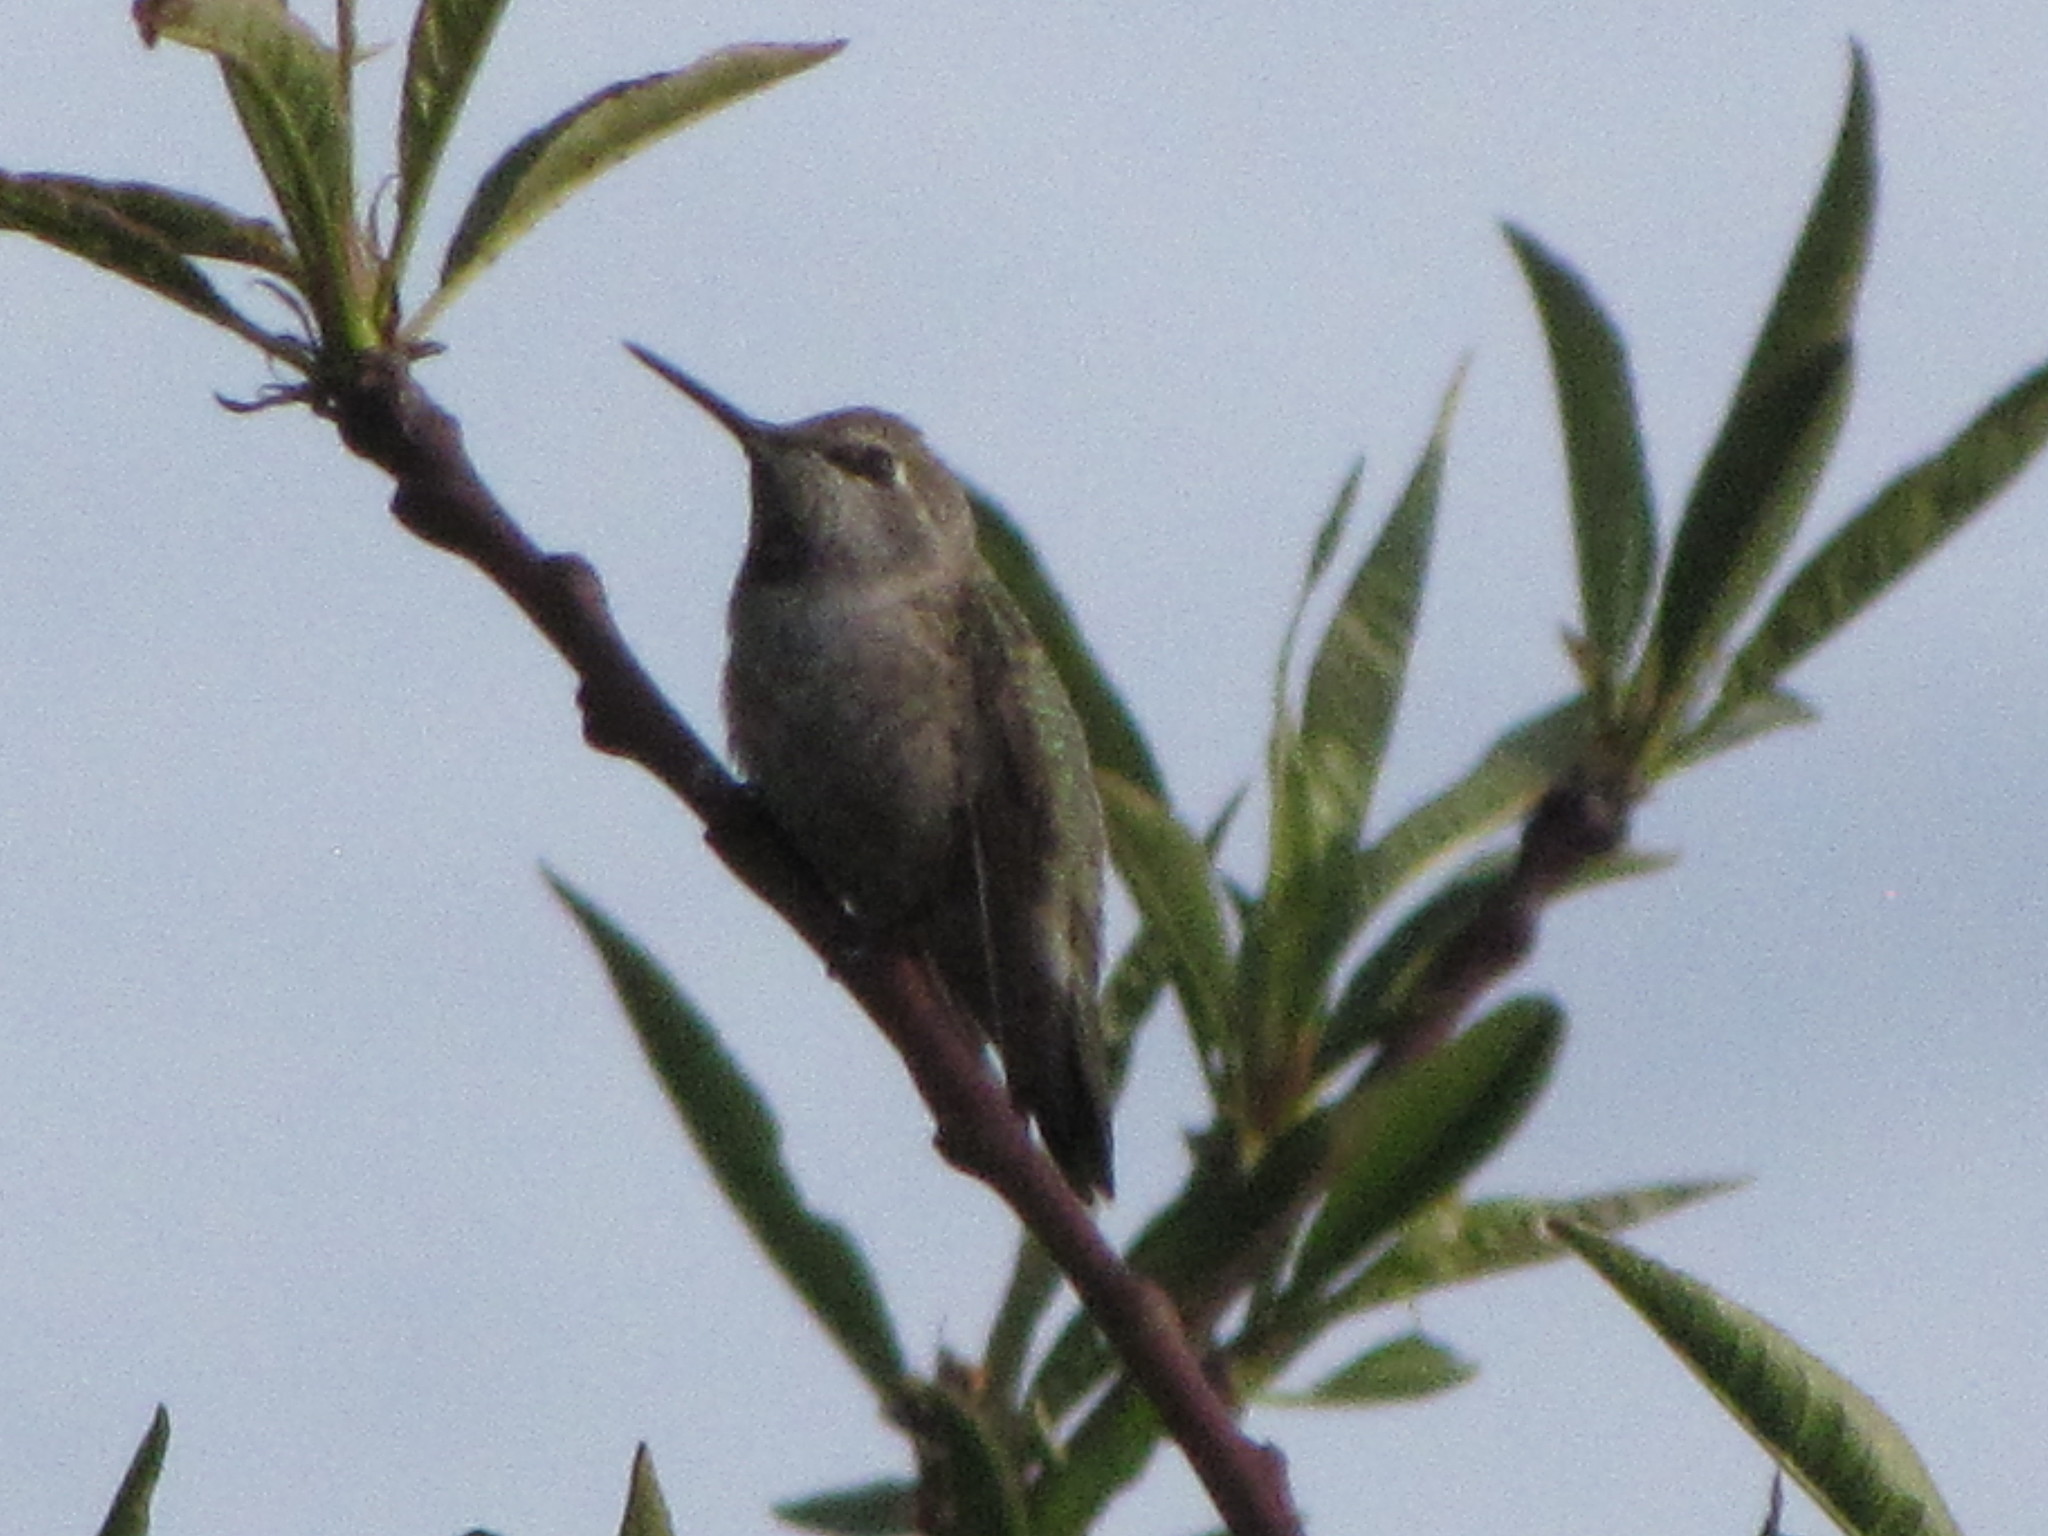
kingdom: Animalia
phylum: Chordata
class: Aves
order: Apodiformes
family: Trochilidae
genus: Calypte
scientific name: Calypte anna
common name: Anna's hummingbird
